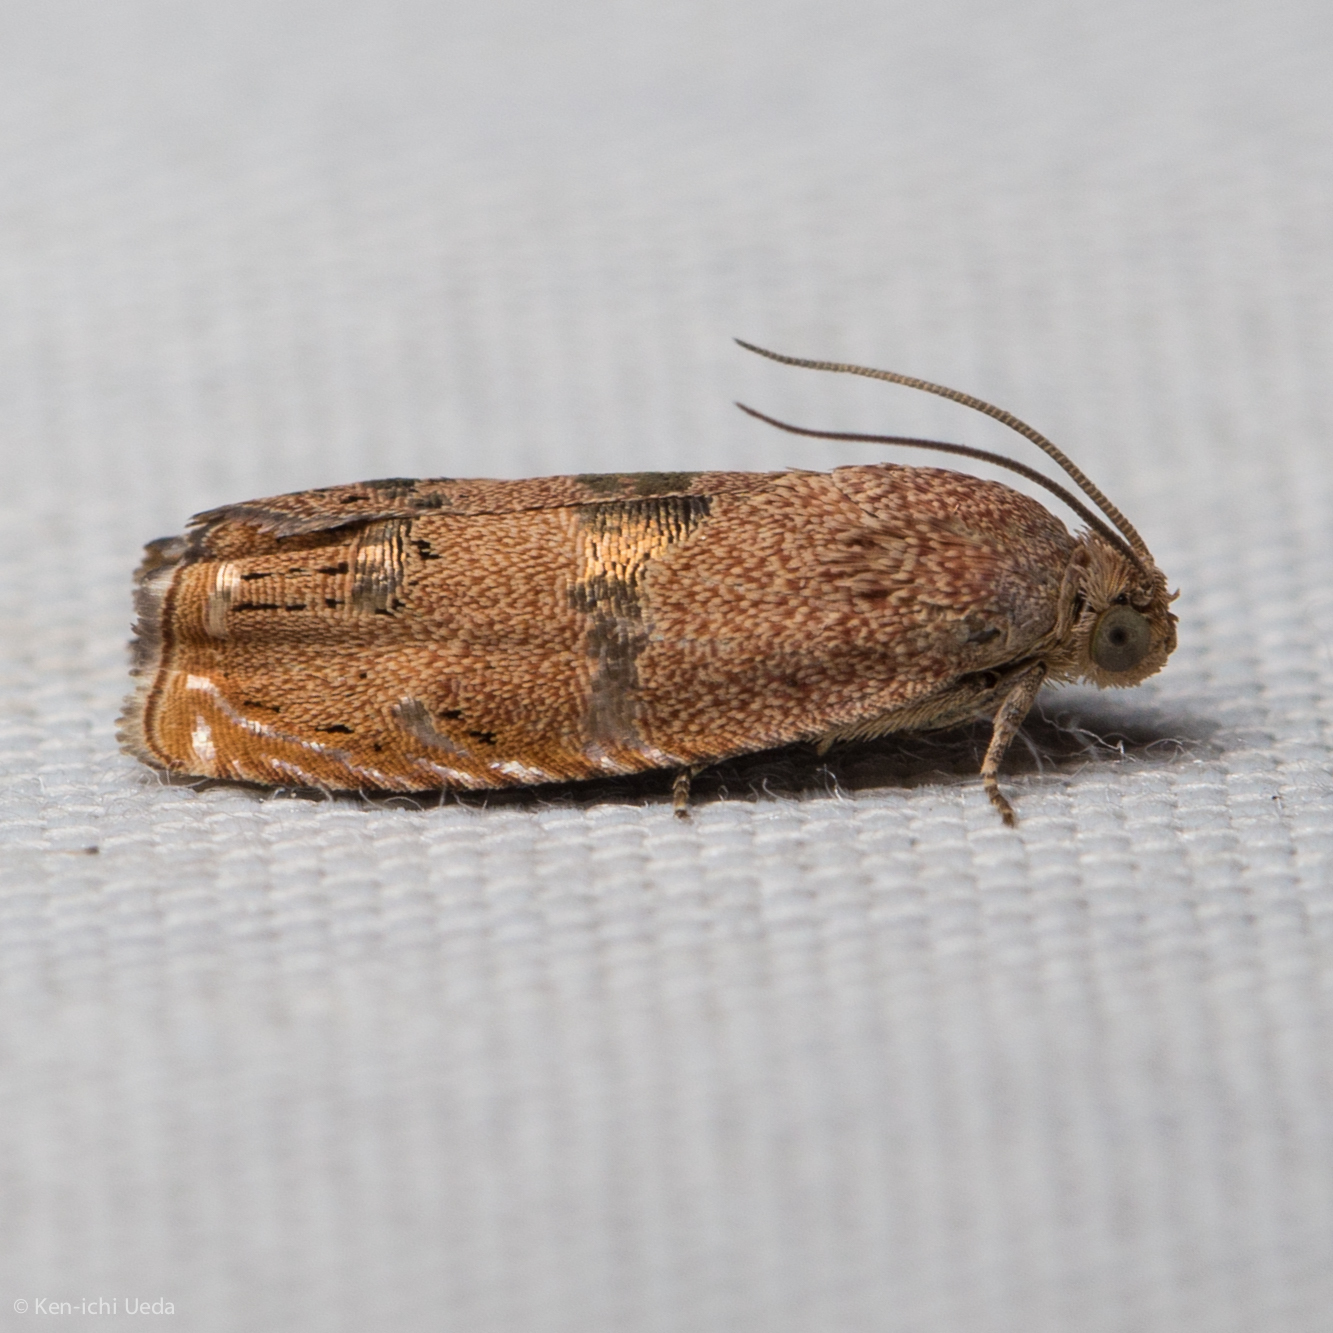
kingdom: Animalia
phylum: Arthropoda
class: Insecta
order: Lepidoptera
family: Tortricidae
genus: Cydia
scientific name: Cydia latiferreana
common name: Filbertworm moth
